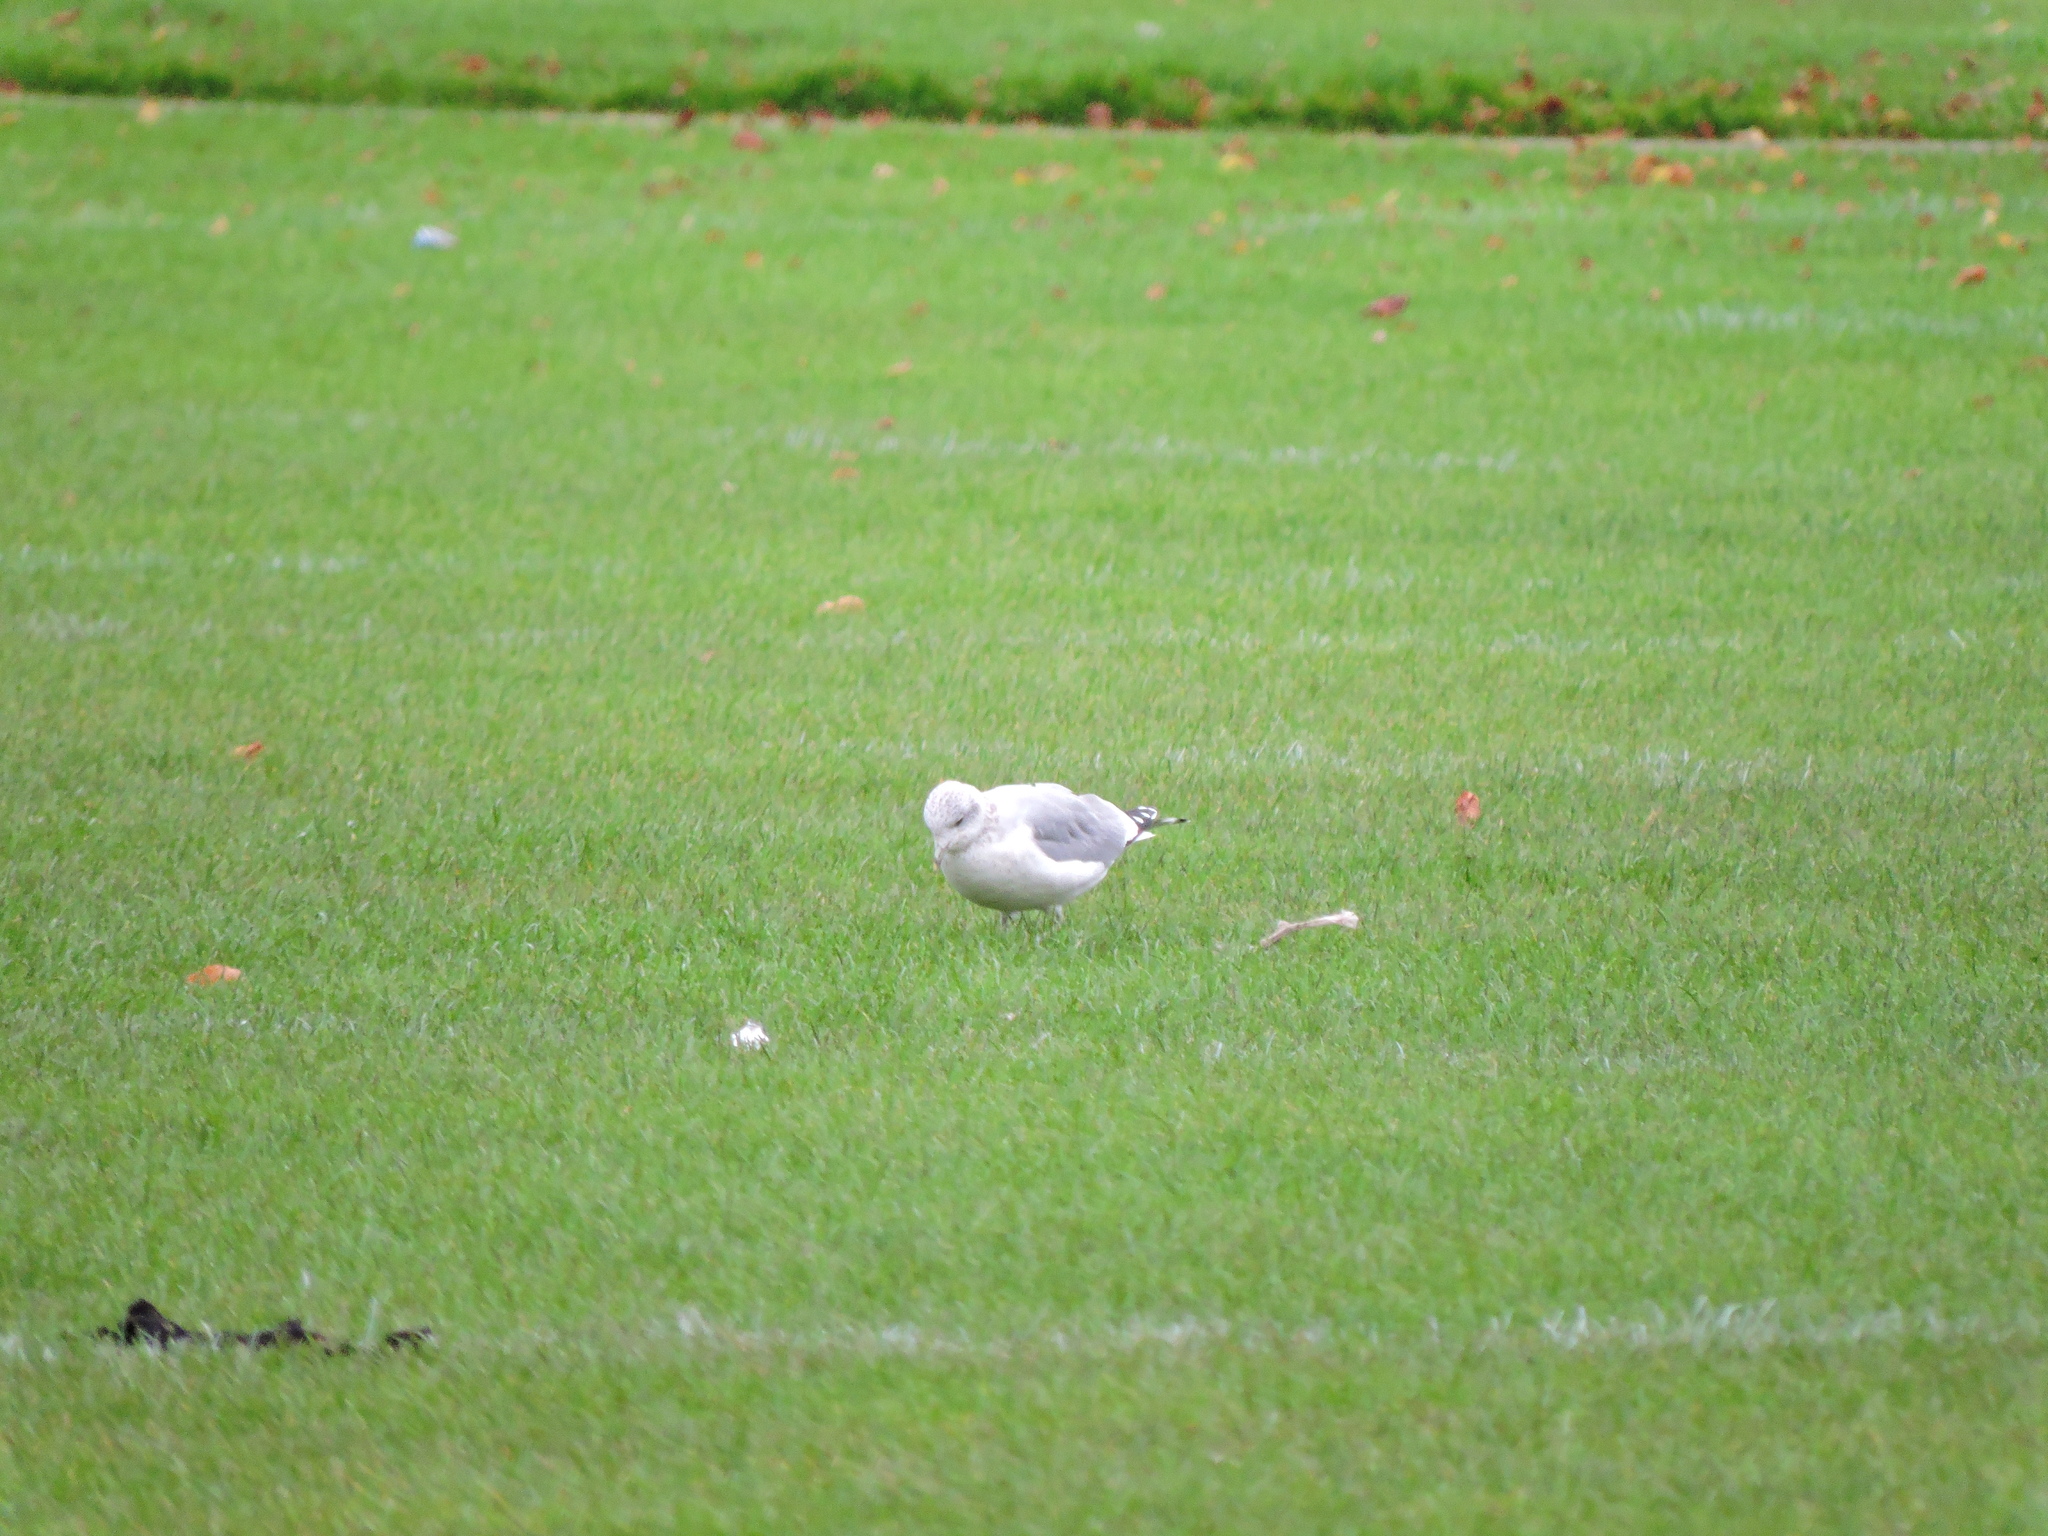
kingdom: Animalia
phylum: Chordata
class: Aves
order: Charadriiformes
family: Laridae
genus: Larus
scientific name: Larus canus
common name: Mew gull
